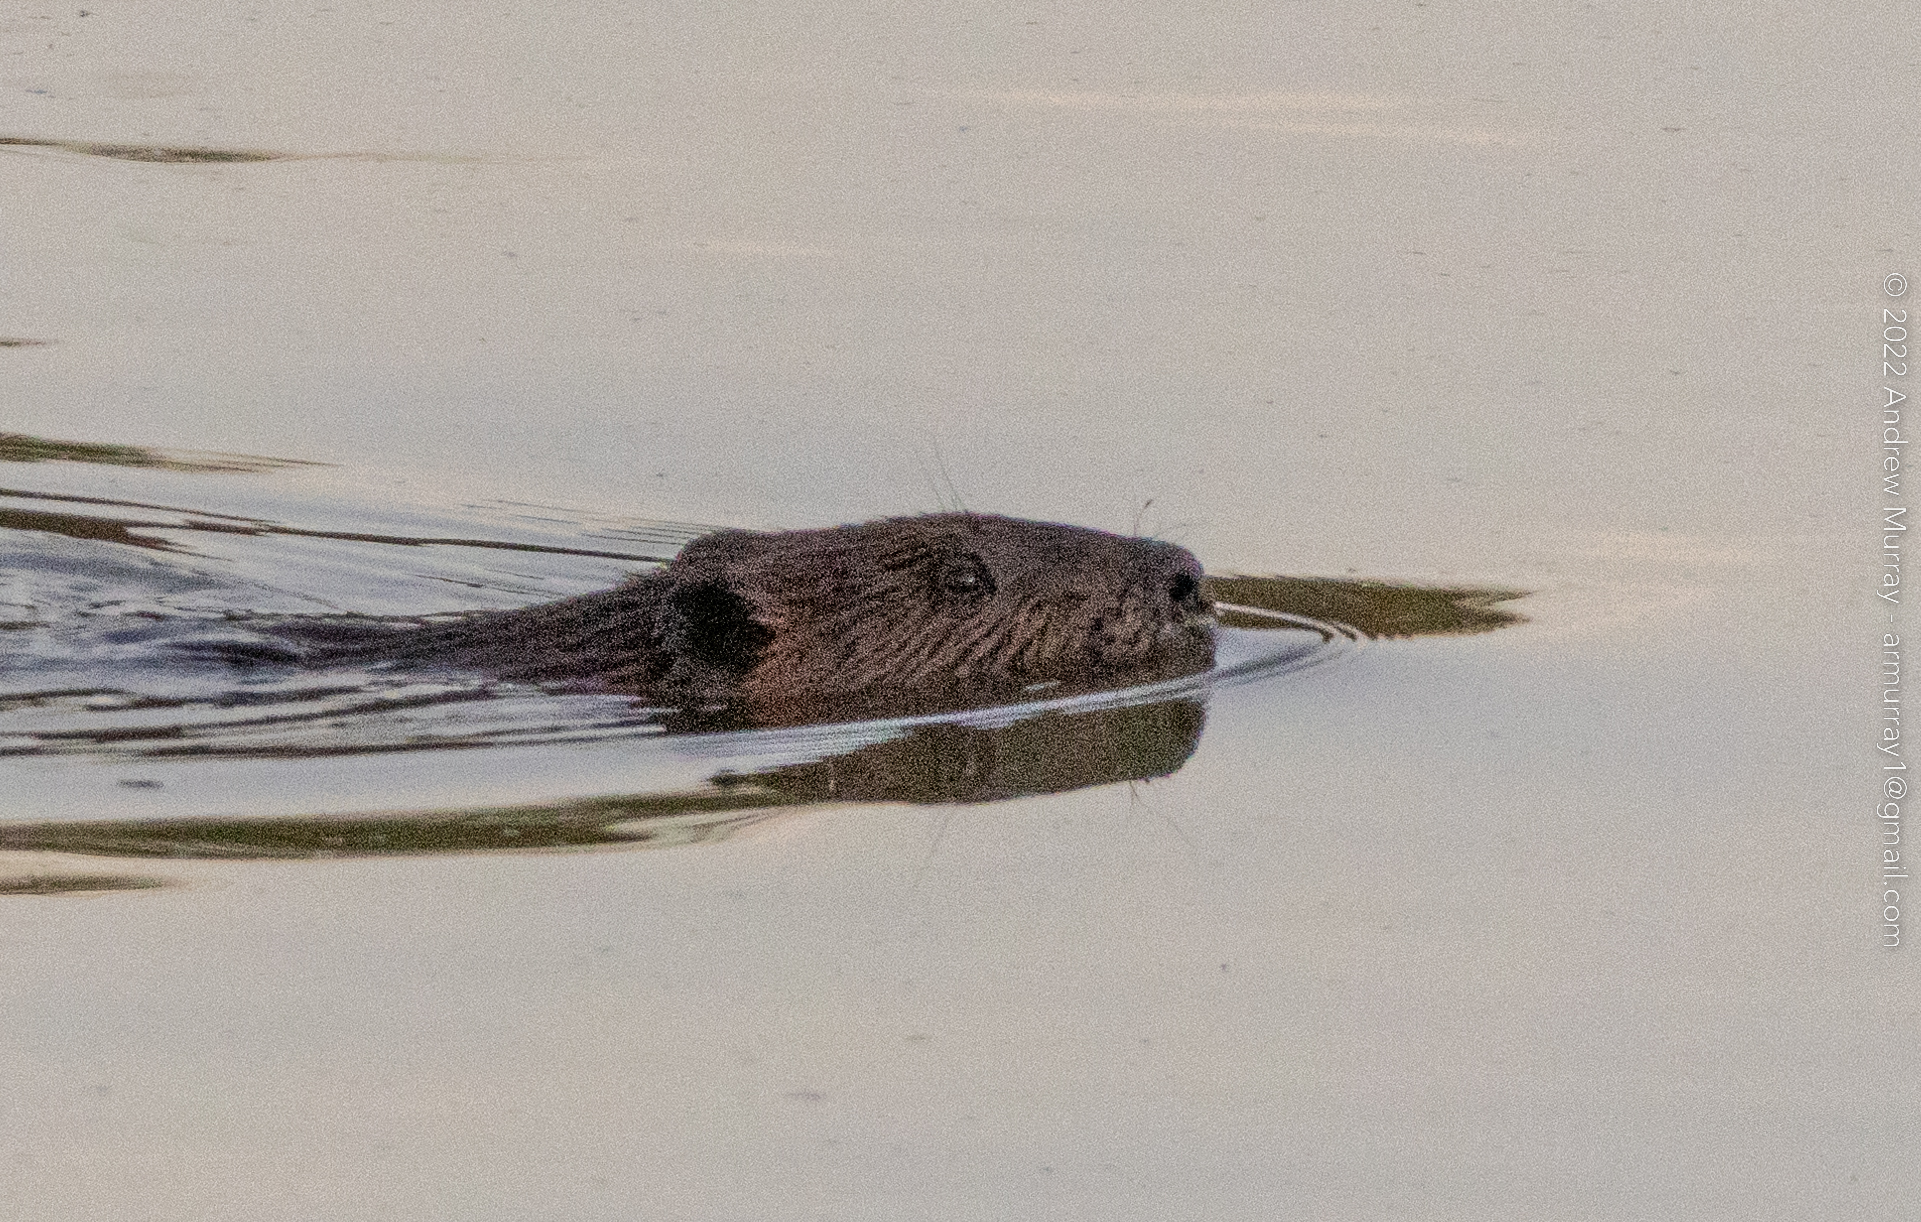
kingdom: Animalia
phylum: Chordata
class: Mammalia
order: Rodentia
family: Castoridae
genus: Castor
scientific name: Castor canadensis
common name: American beaver
